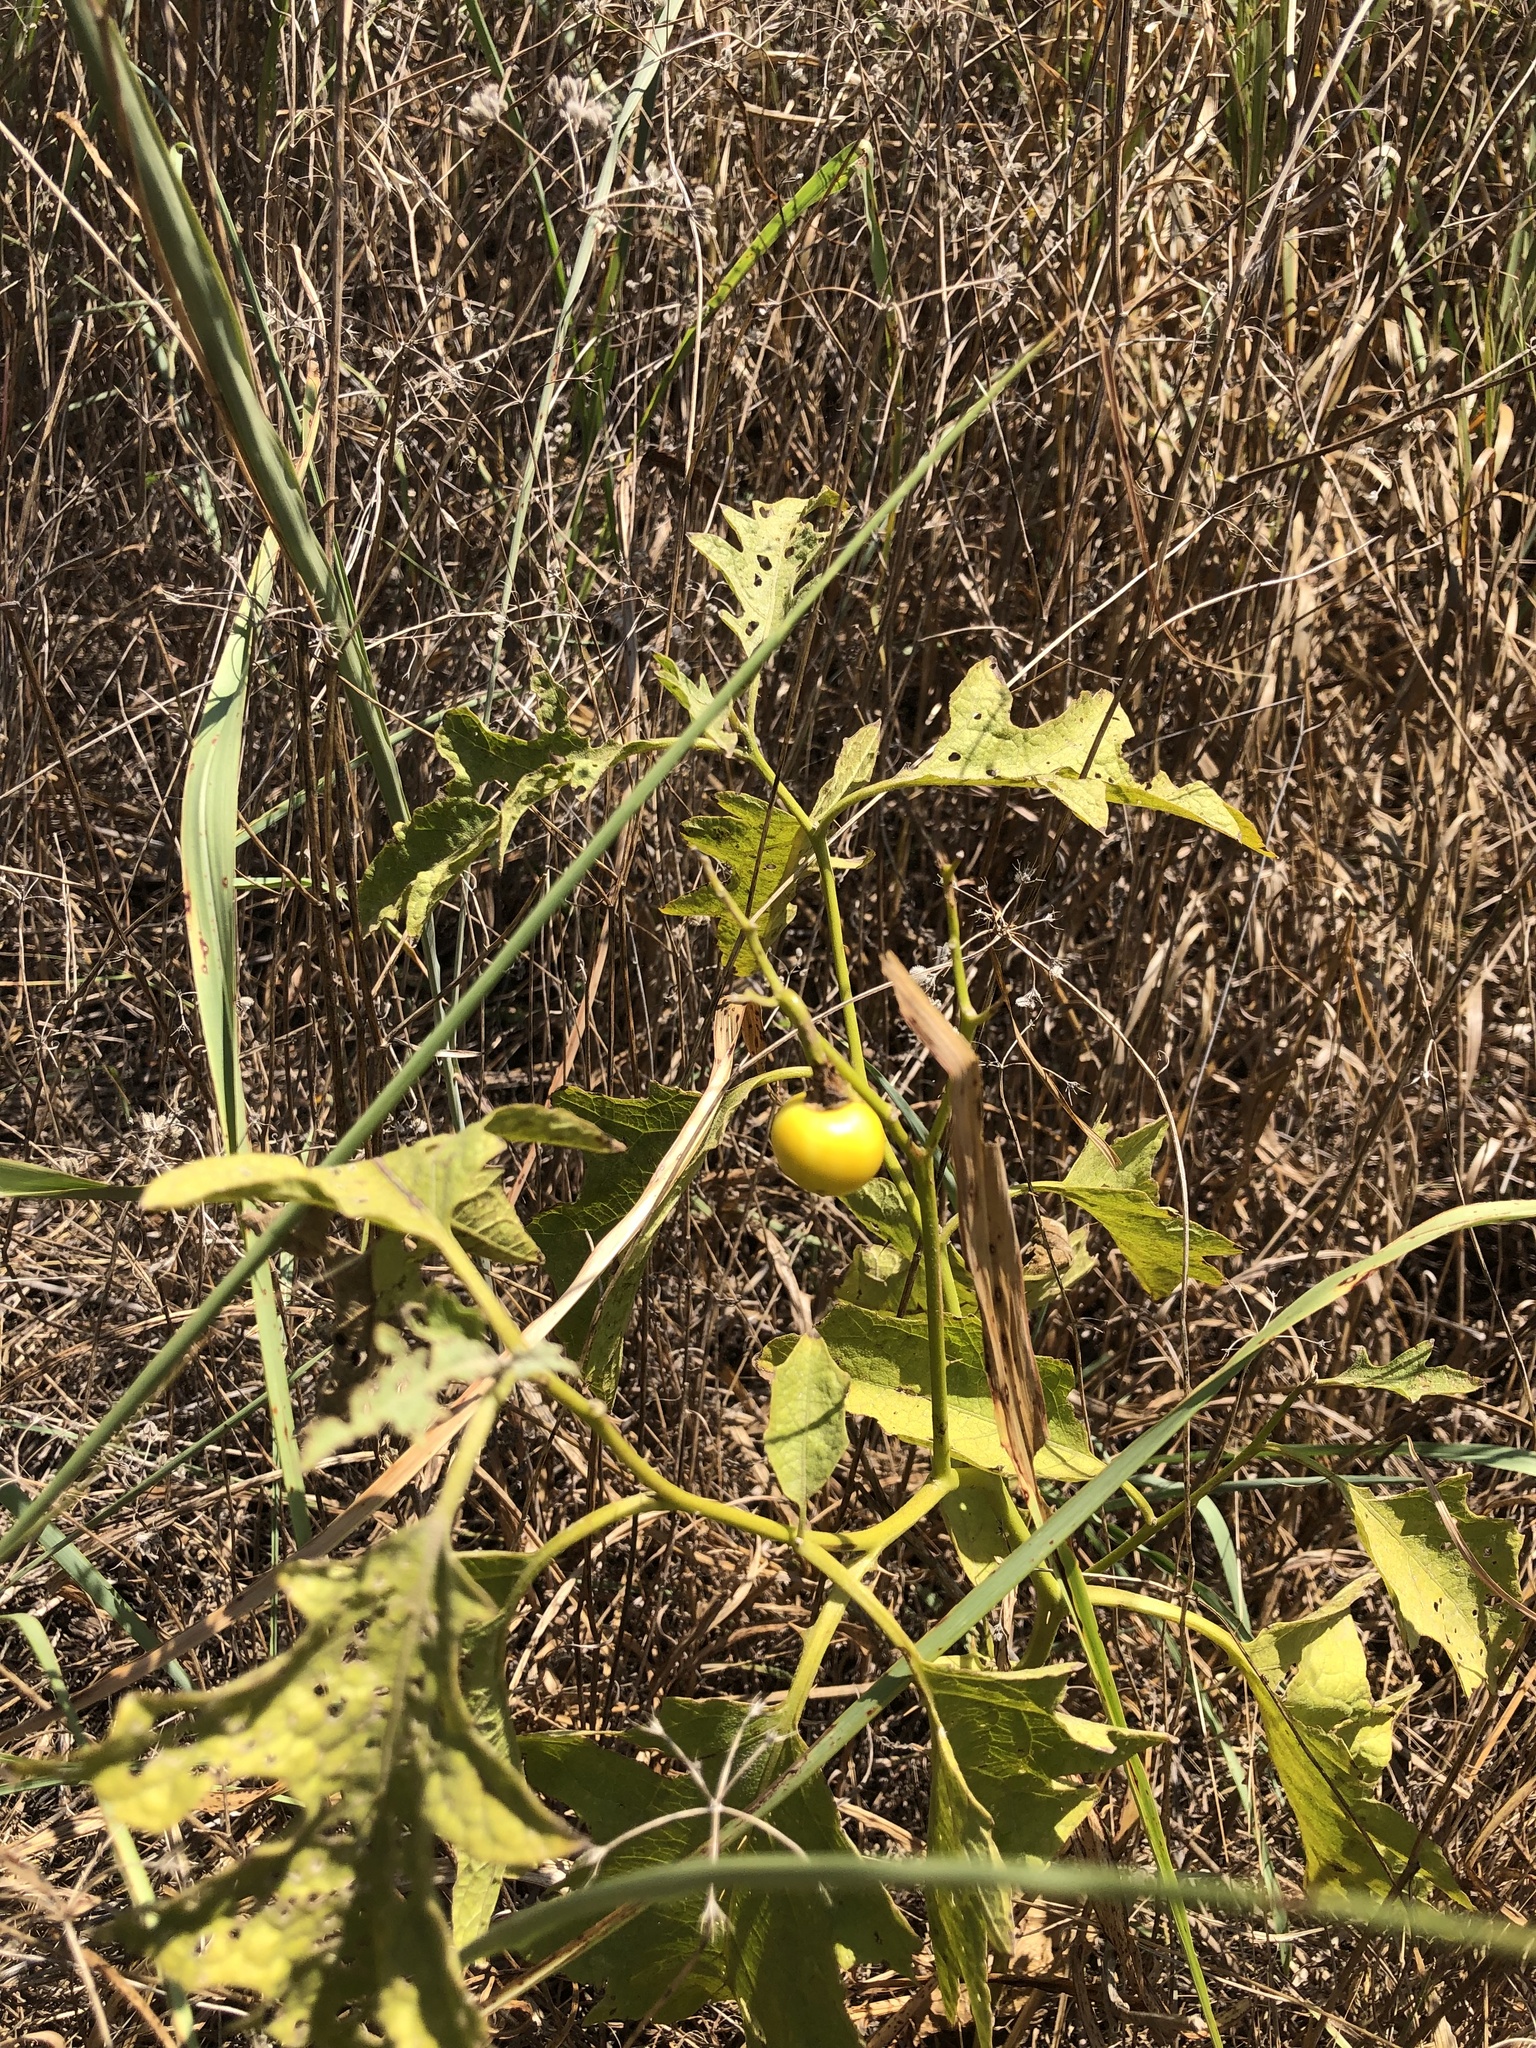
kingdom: Plantae
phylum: Tracheophyta
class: Magnoliopsida
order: Solanales
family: Solanaceae
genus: Solanum
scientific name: Solanum dimidiatum
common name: Carolina horse-nettle
